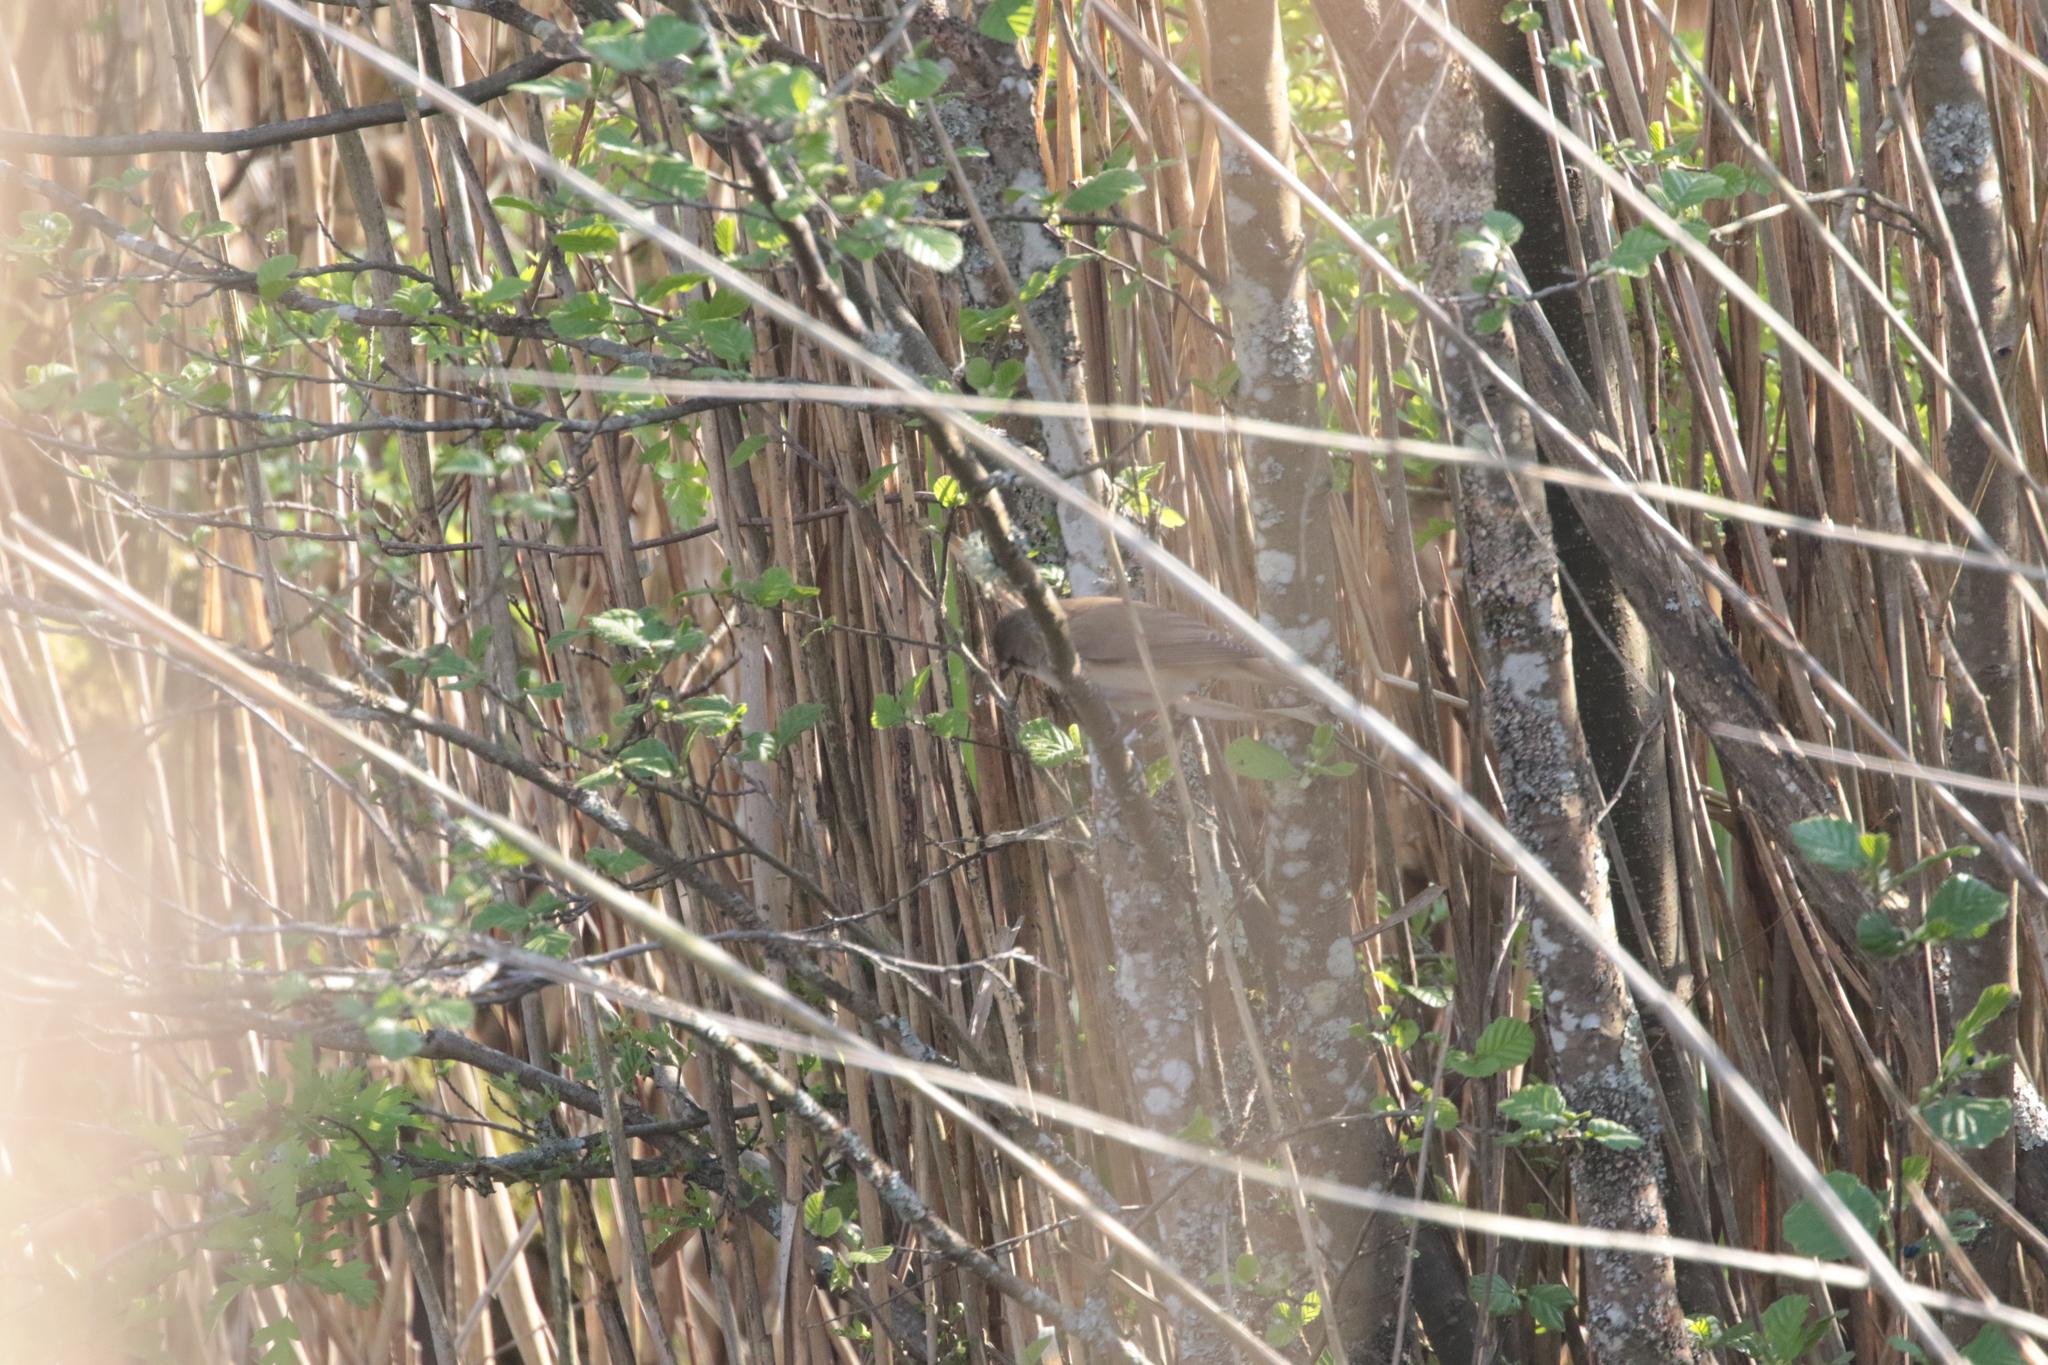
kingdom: Animalia
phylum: Chordata
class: Aves
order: Passeriformes
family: Acrocephalidae
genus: Acrocephalus
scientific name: Acrocephalus scirpaceus
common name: Eurasian reed warbler
